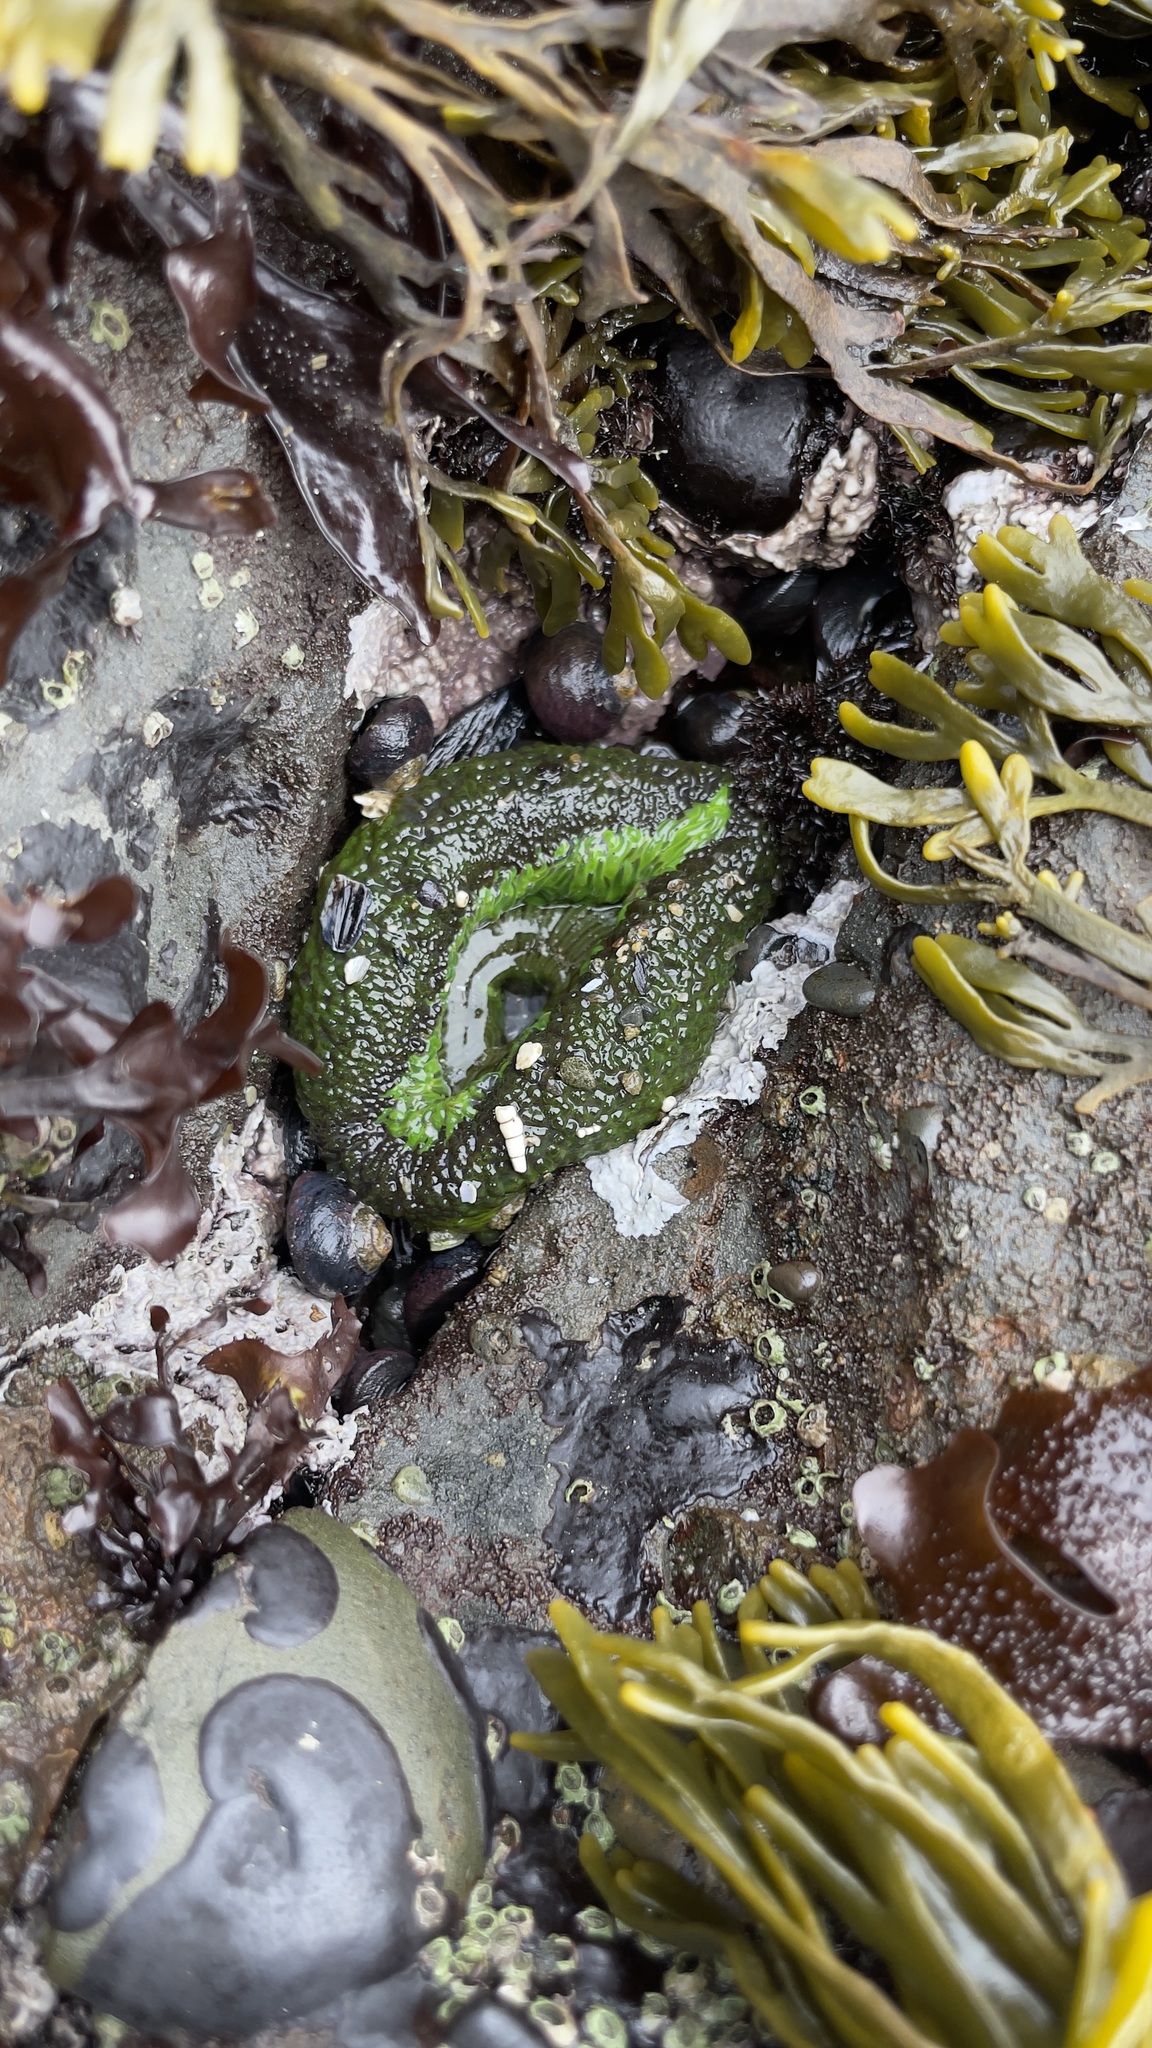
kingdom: Animalia
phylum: Cnidaria
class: Anthozoa
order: Actiniaria
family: Actiniidae
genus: Anthopleura
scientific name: Anthopleura sola
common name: Sun anemone
